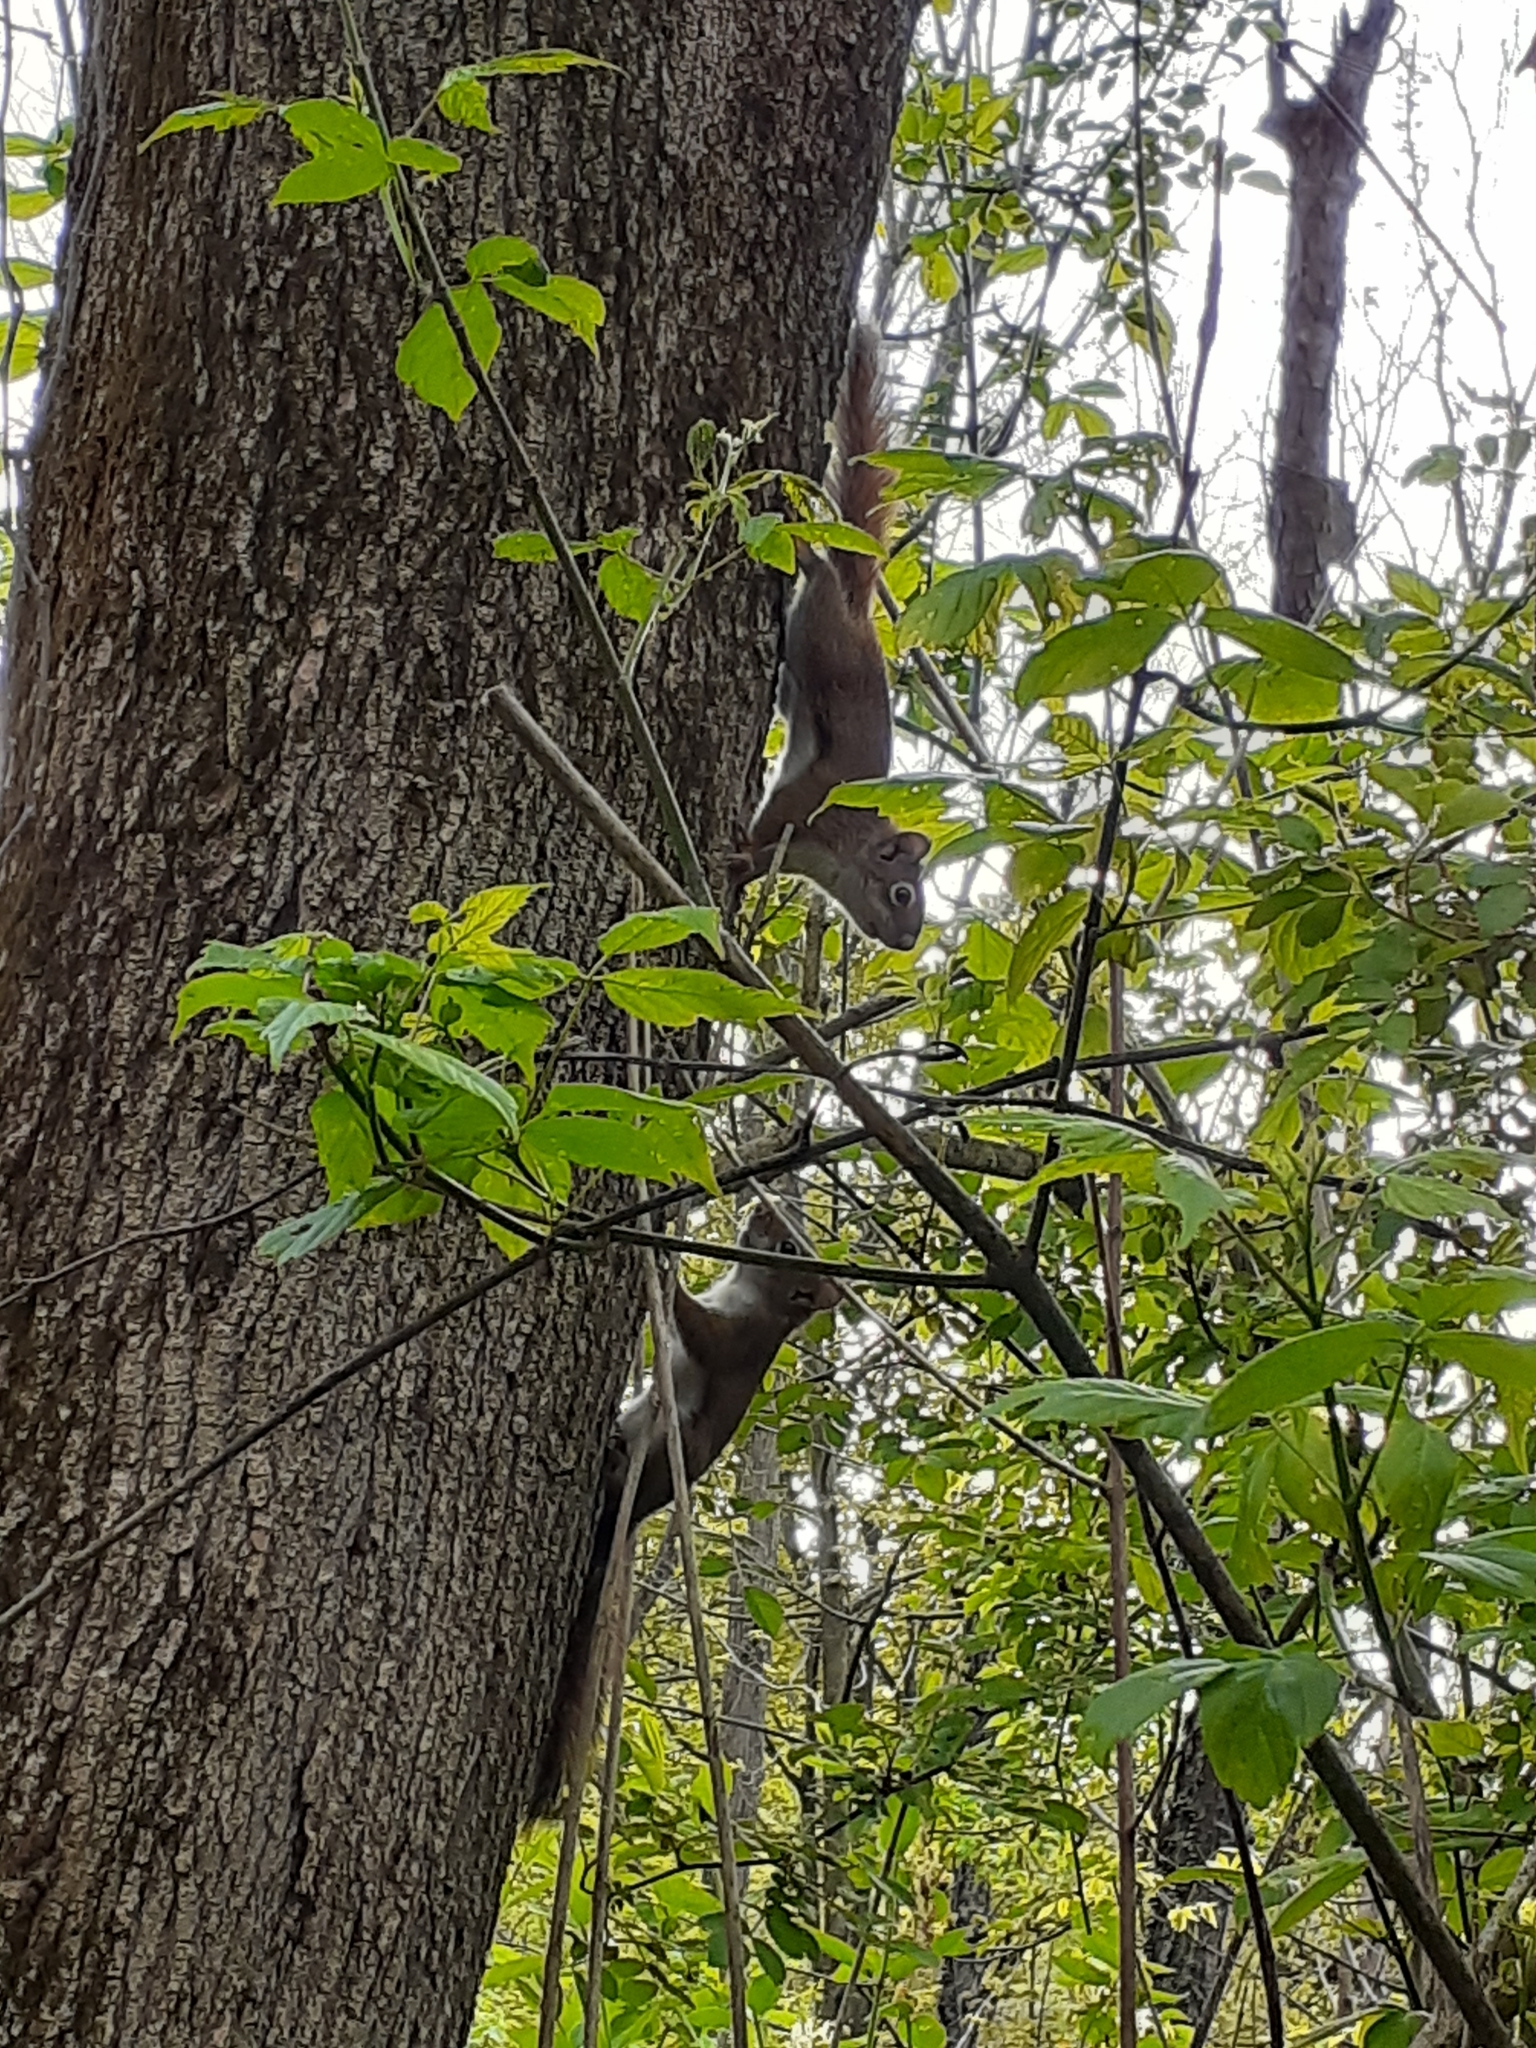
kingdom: Animalia
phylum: Chordata
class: Mammalia
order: Rodentia
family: Sciuridae
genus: Tamiasciurus
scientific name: Tamiasciurus hudsonicus
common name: Red squirrel
